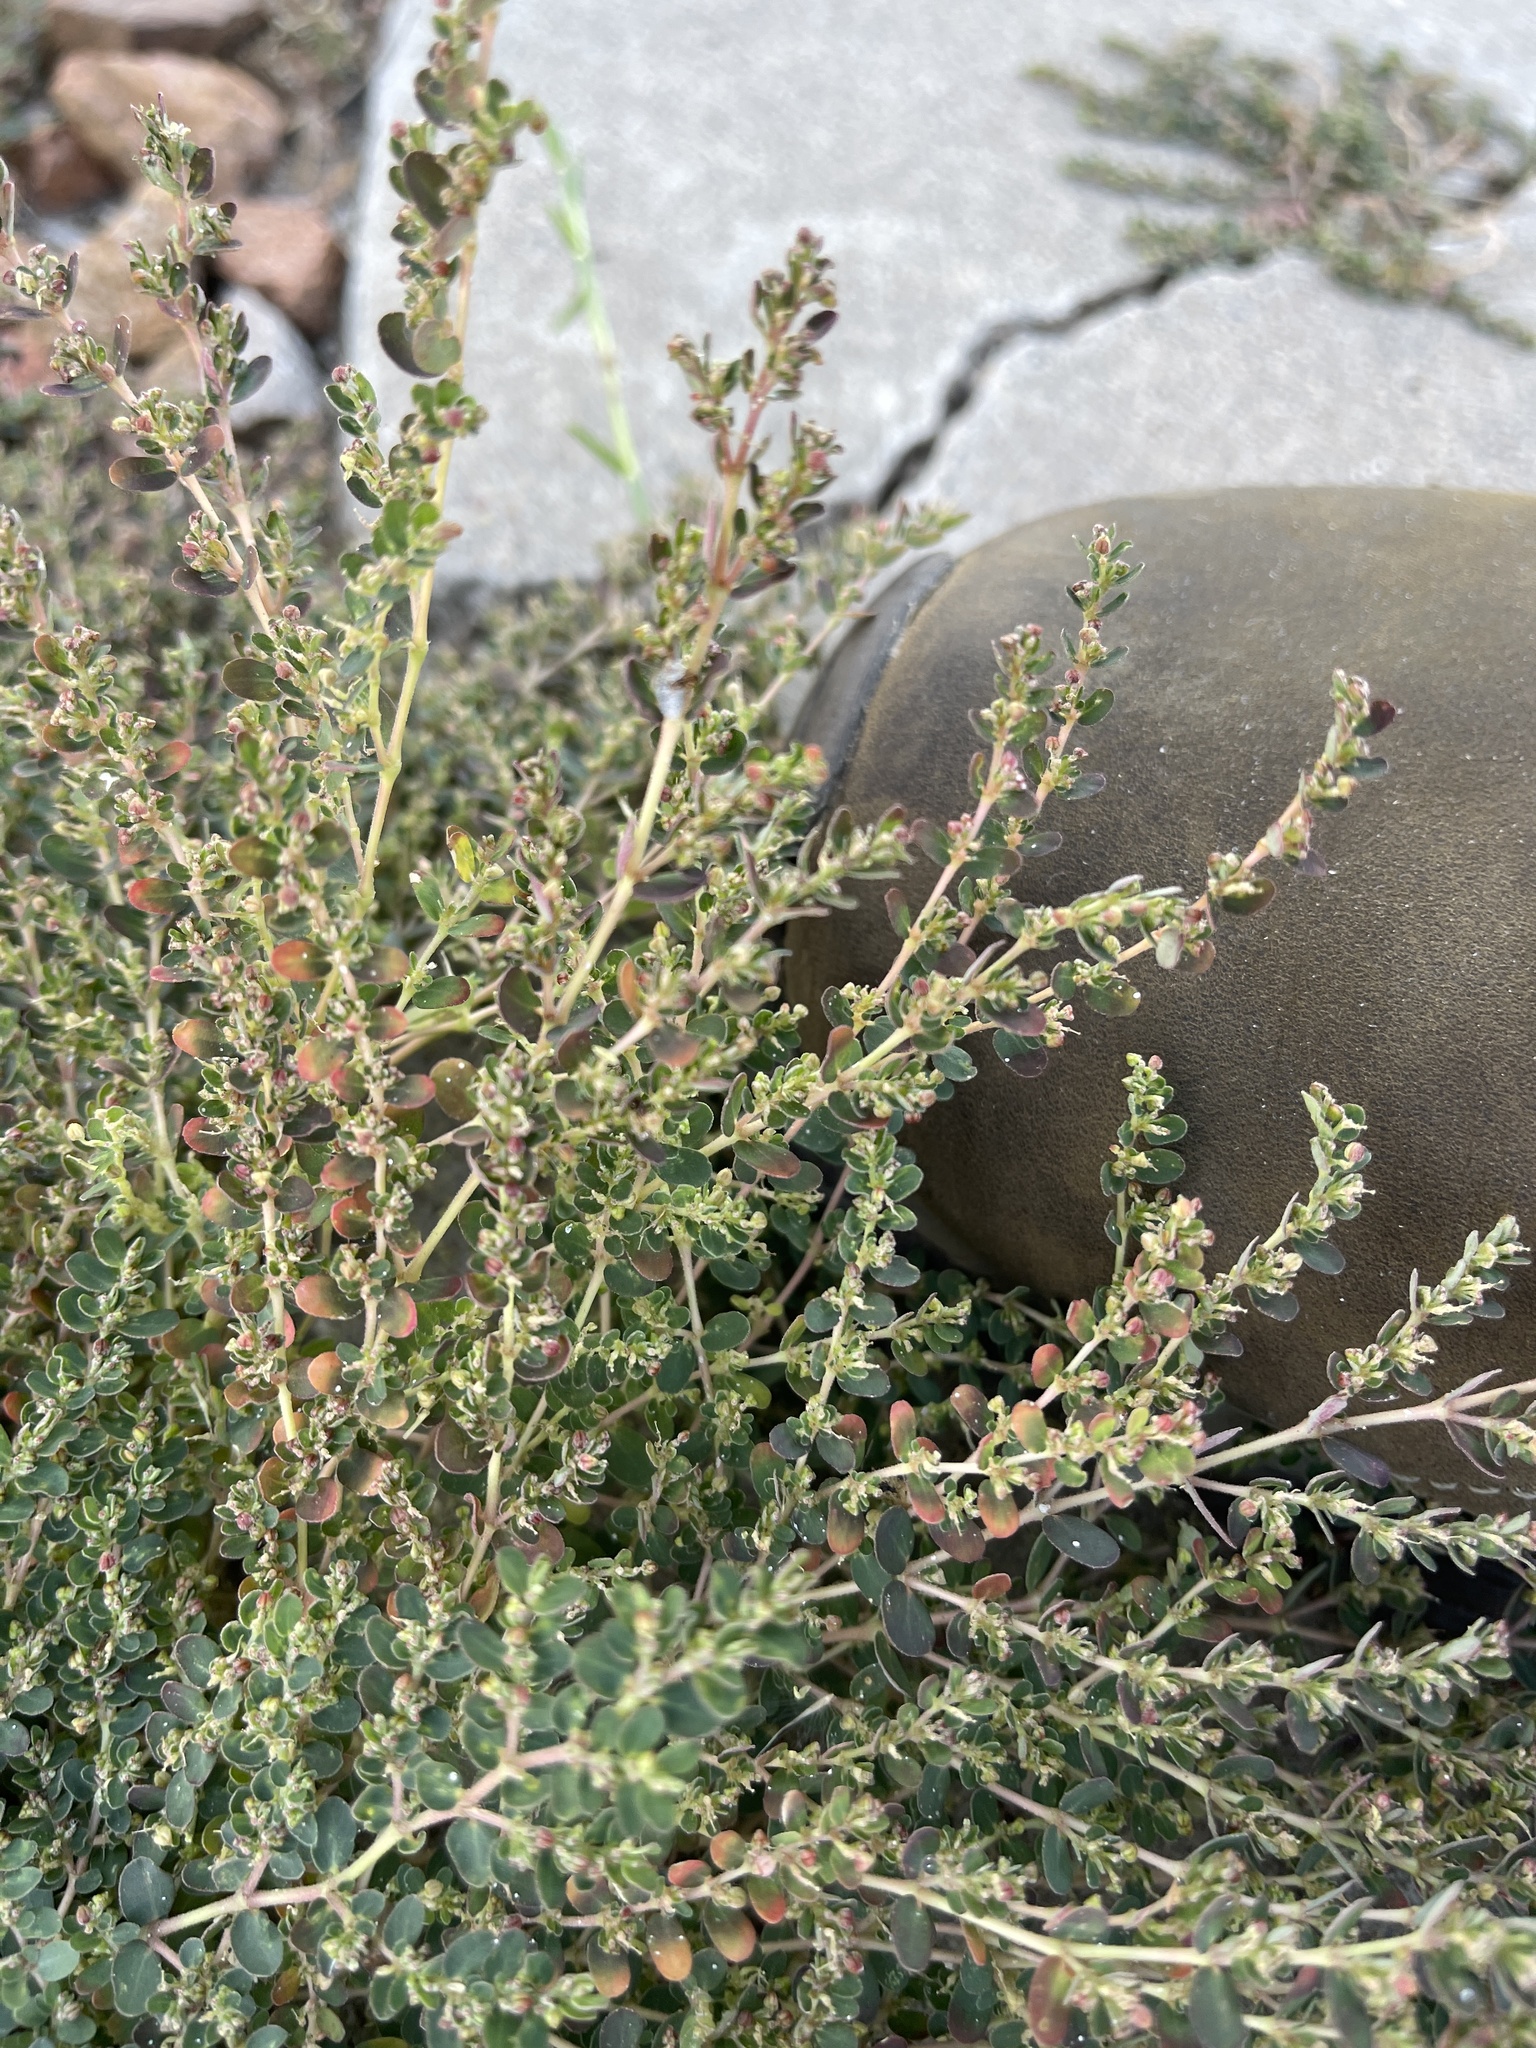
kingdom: Plantae
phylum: Tracheophyta
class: Magnoliopsida
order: Malpighiales
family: Euphorbiaceae
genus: Euphorbia
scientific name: Euphorbia prostrata
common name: Prostrate sandmat
